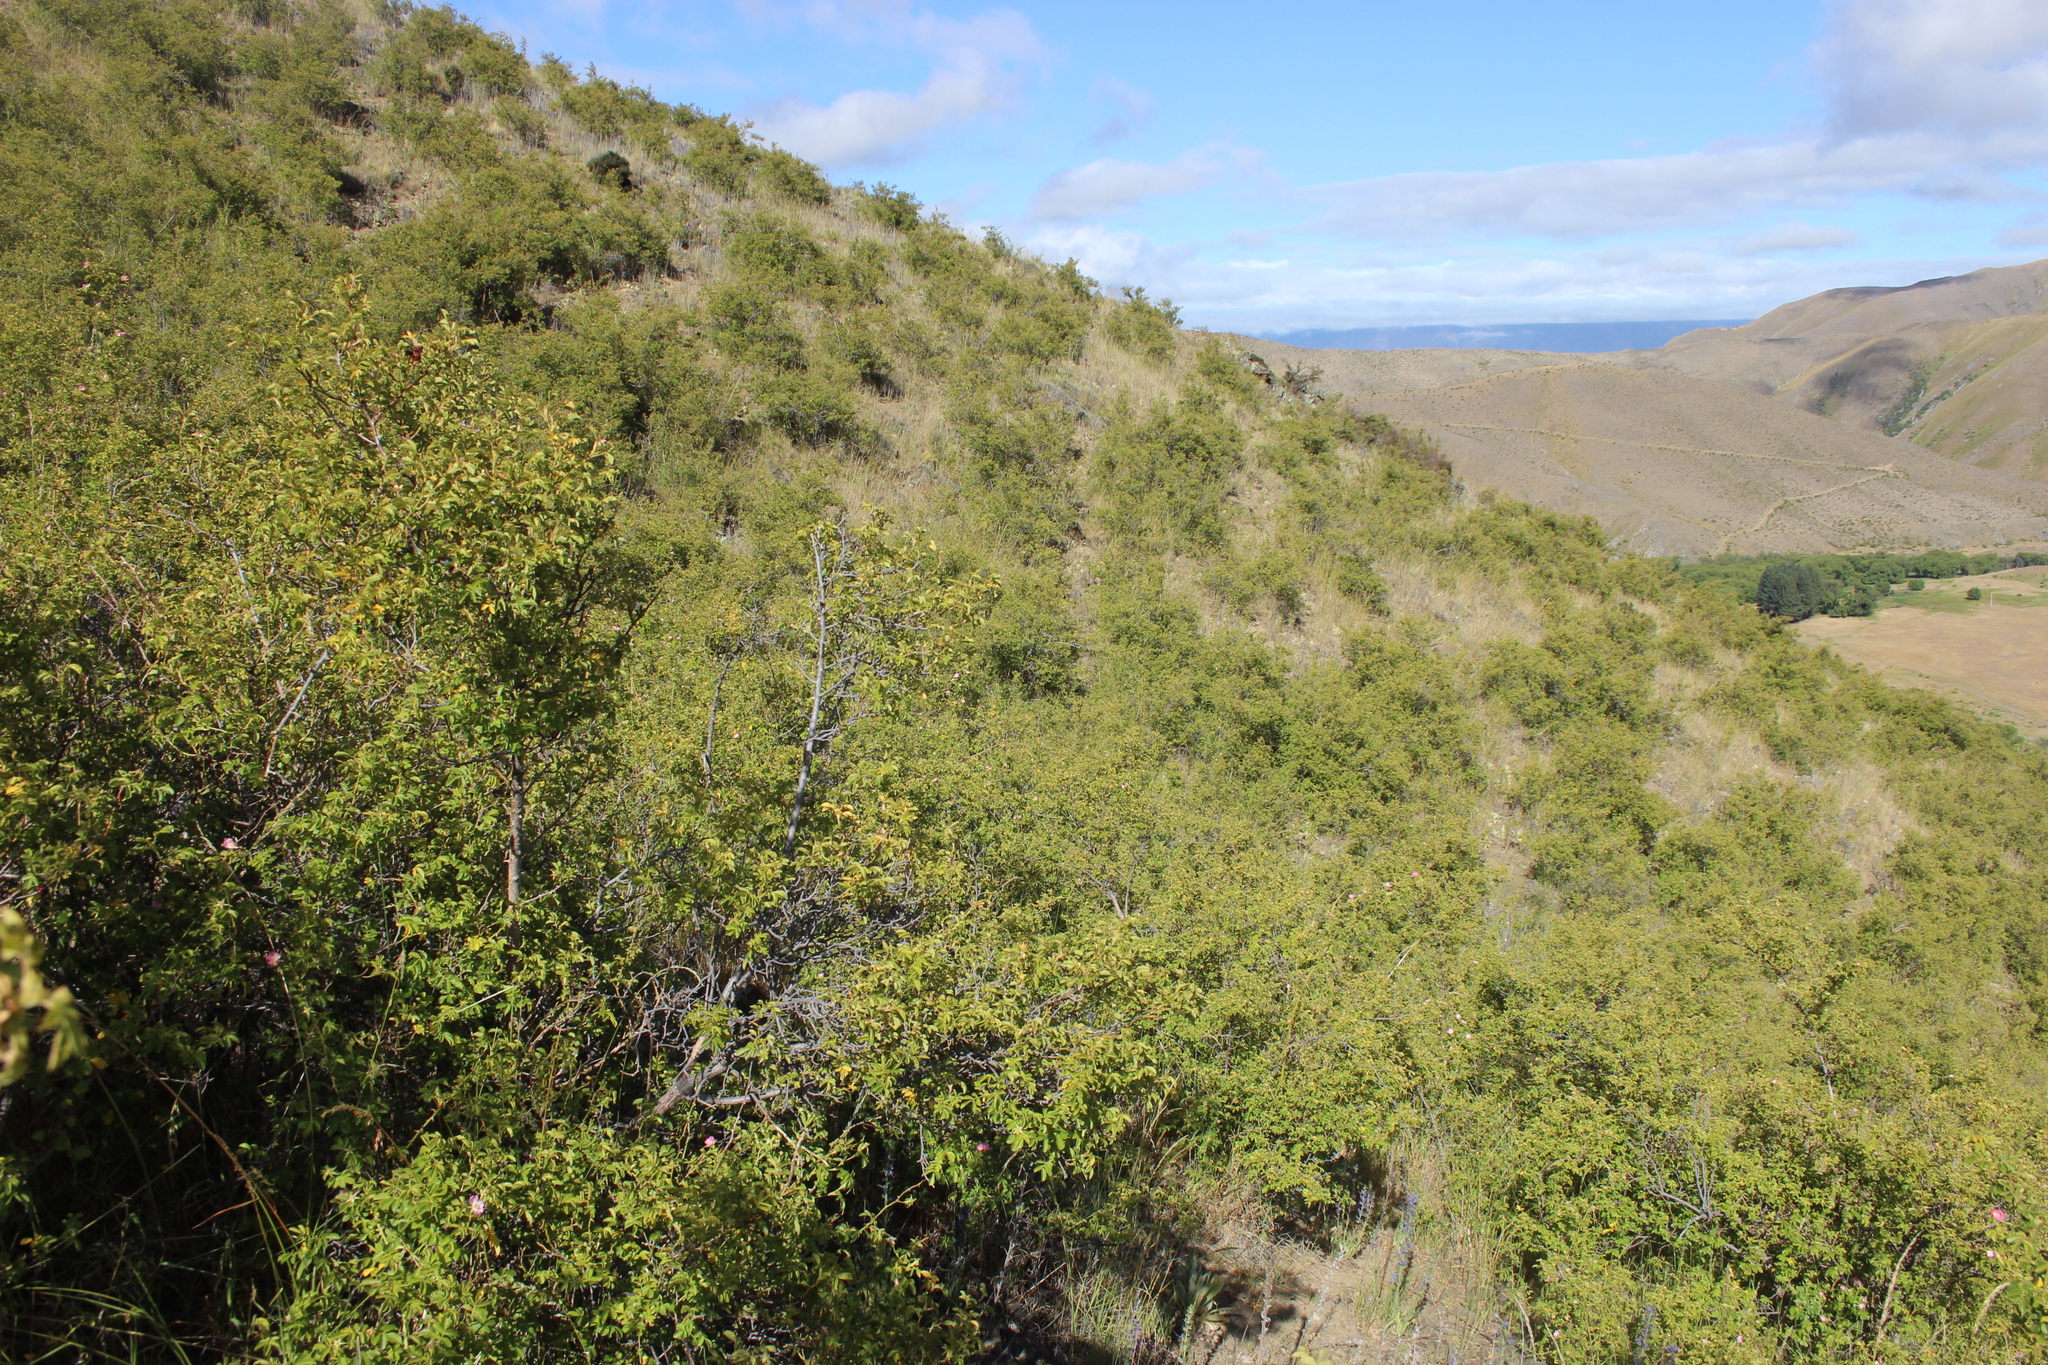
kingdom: Plantae
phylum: Tracheophyta
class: Magnoliopsida
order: Rosales
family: Rosaceae
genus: Rosa
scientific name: Rosa rubiginosa
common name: Sweet-briar
